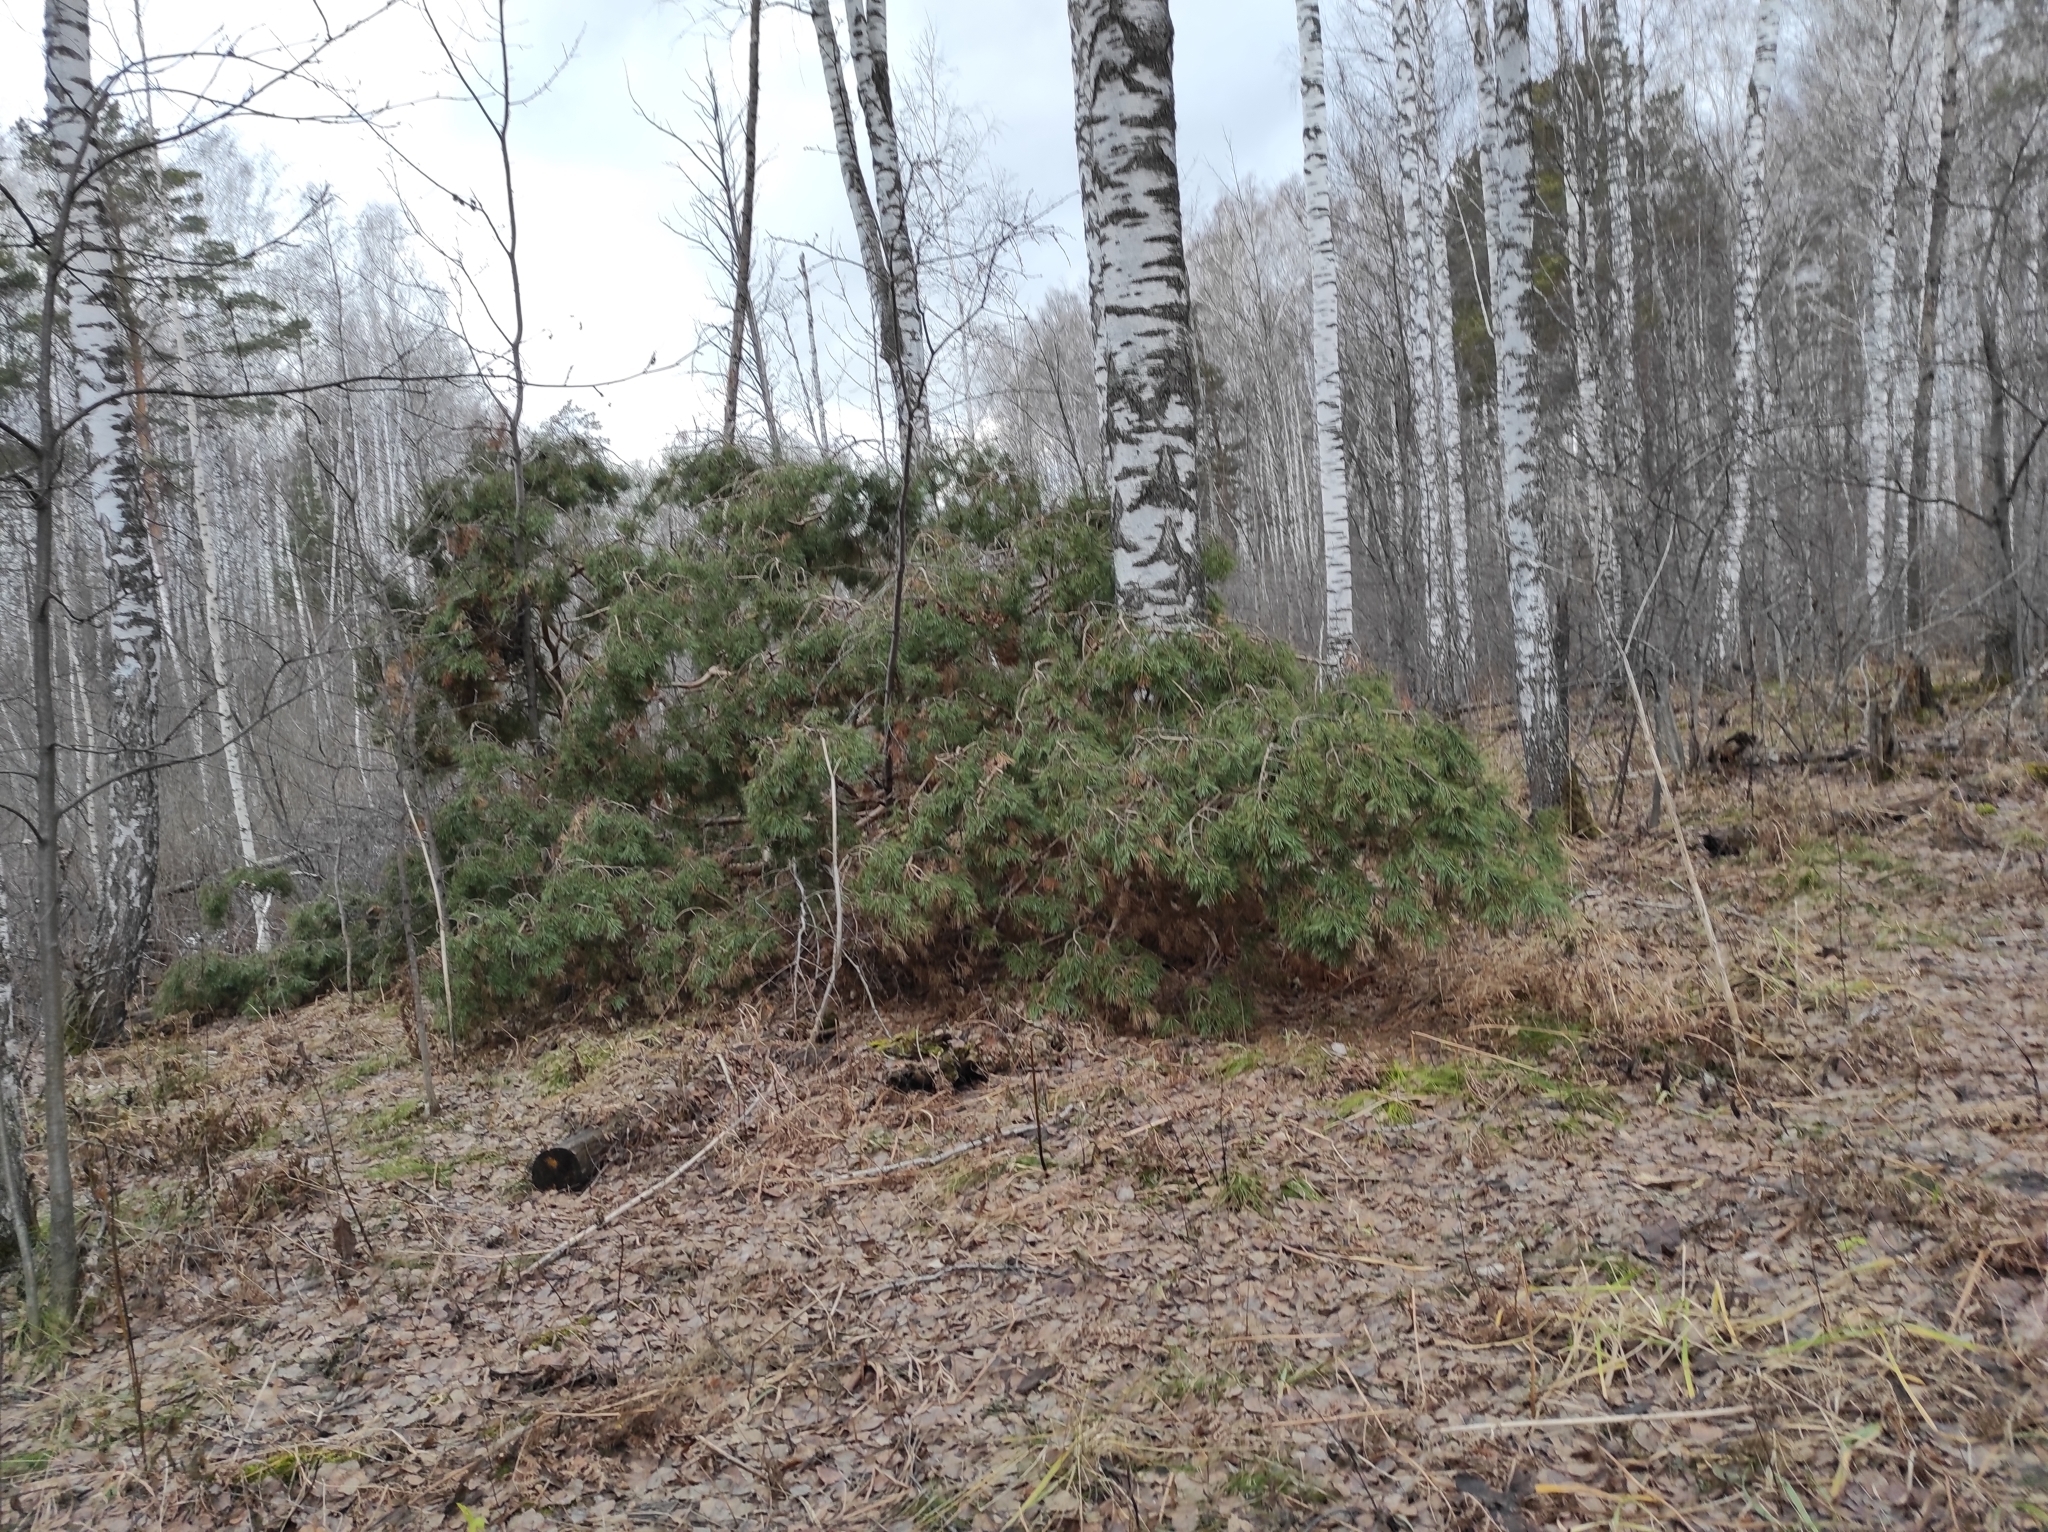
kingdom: Plantae
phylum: Tracheophyta
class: Pinopsida
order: Pinales
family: Pinaceae
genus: Pinus
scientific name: Pinus sylvestris
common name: Scots pine
